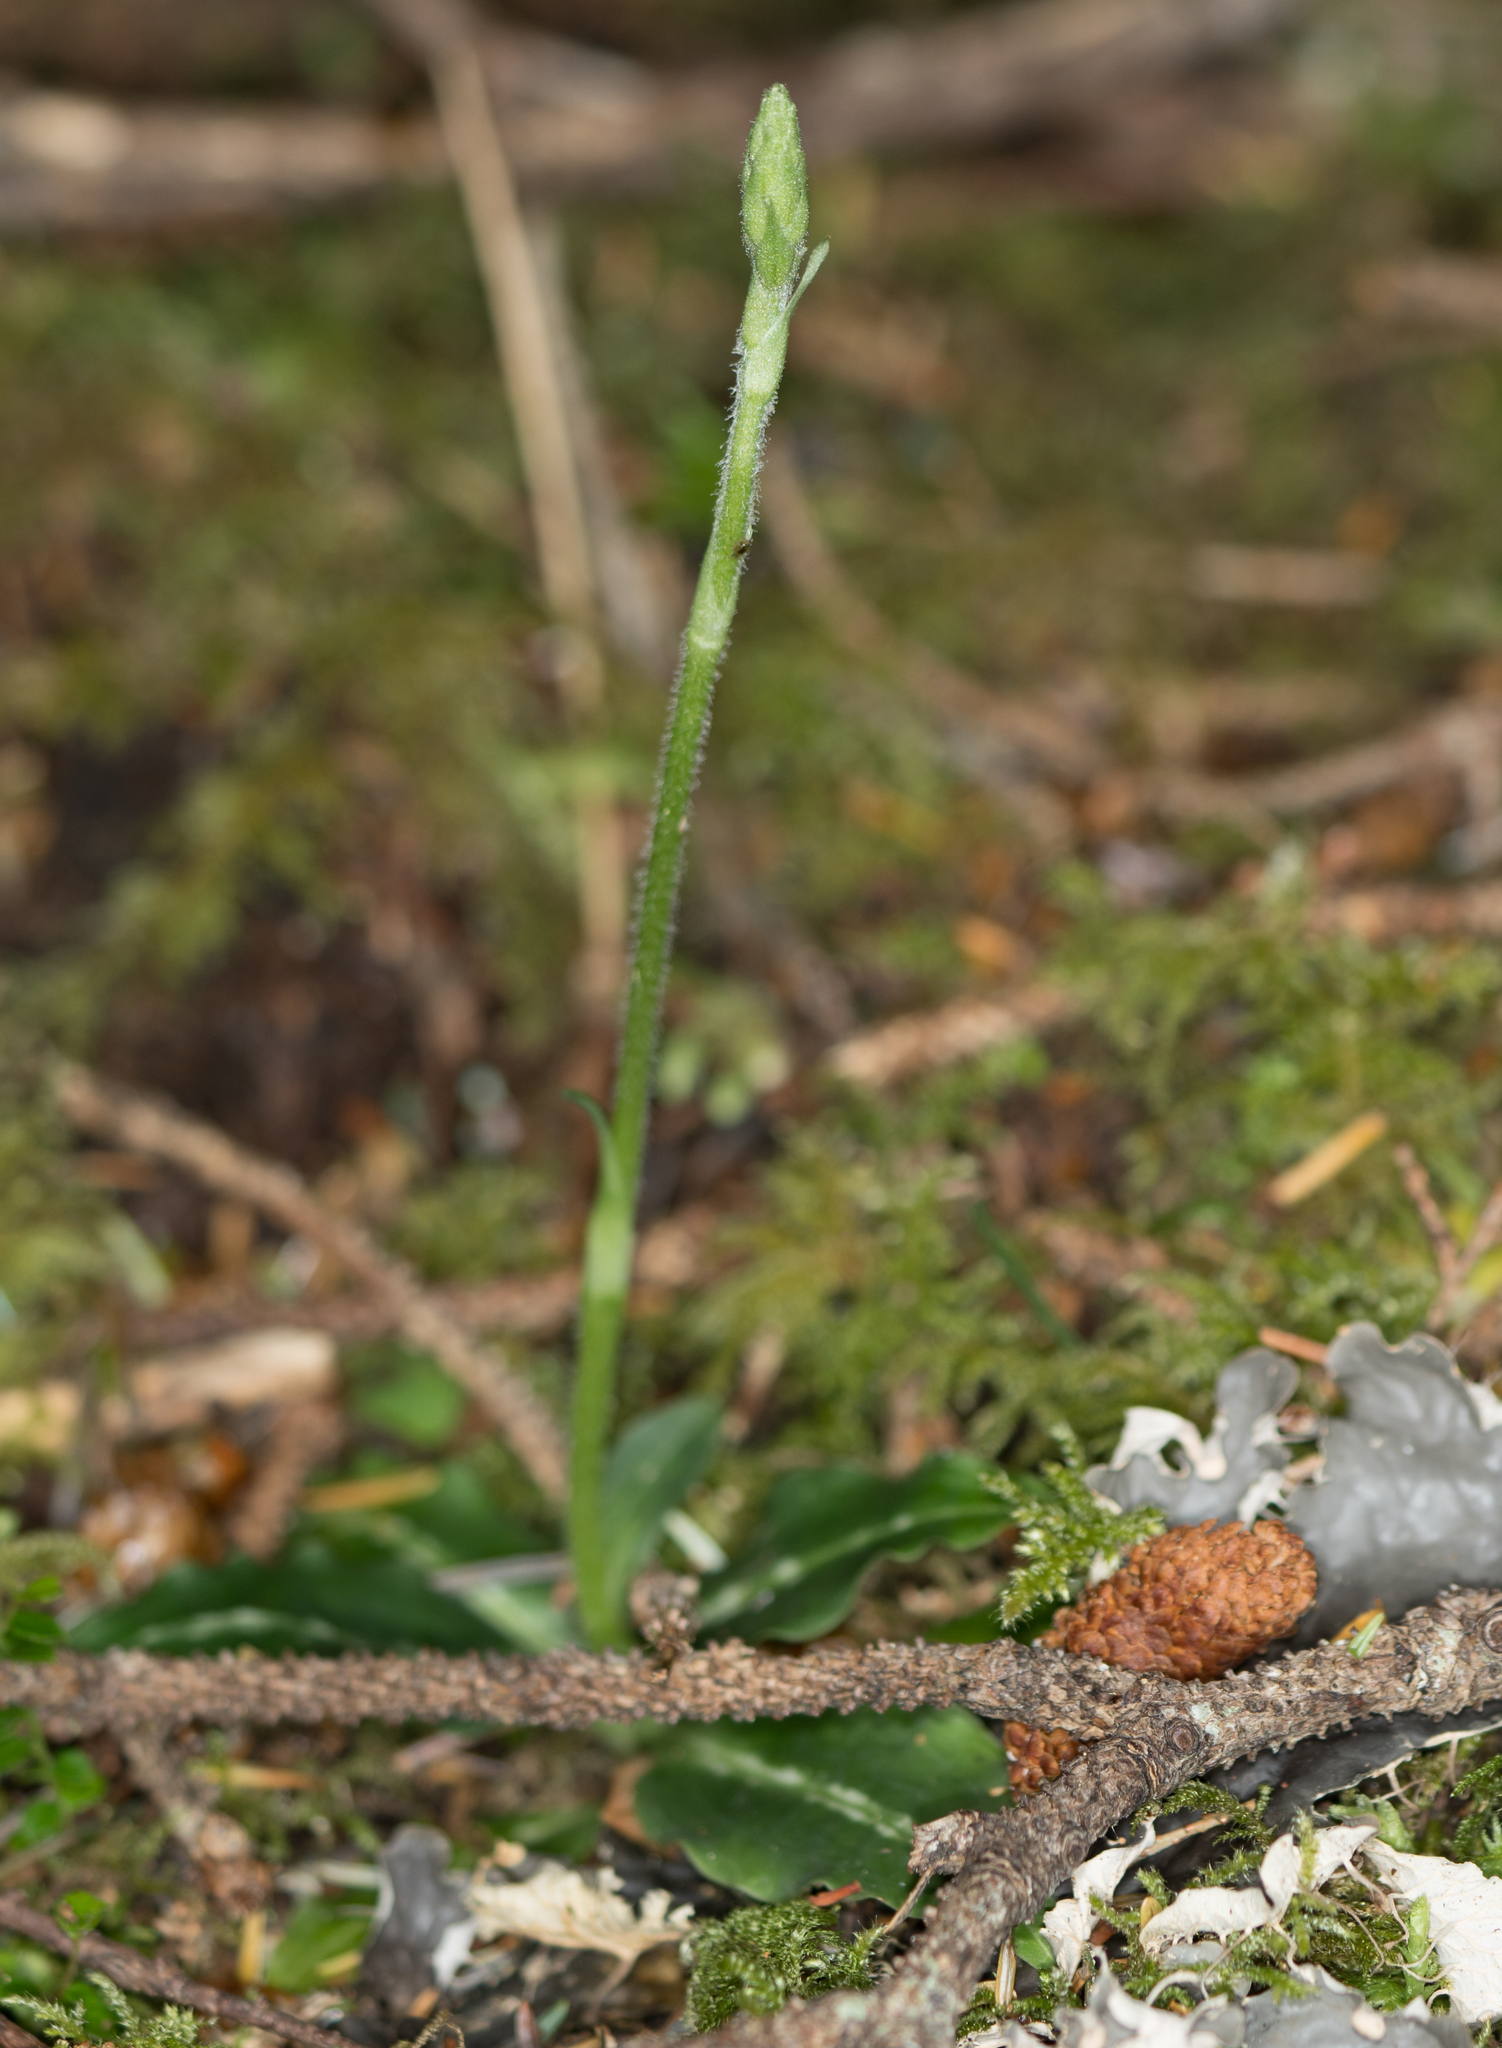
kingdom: Plantae
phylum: Tracheophyta
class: Liliopsida
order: Asparagales
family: Orchidaceae
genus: Goodyera
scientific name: Goodyera oblongifolia
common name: Giant rattlesnake-plantain
